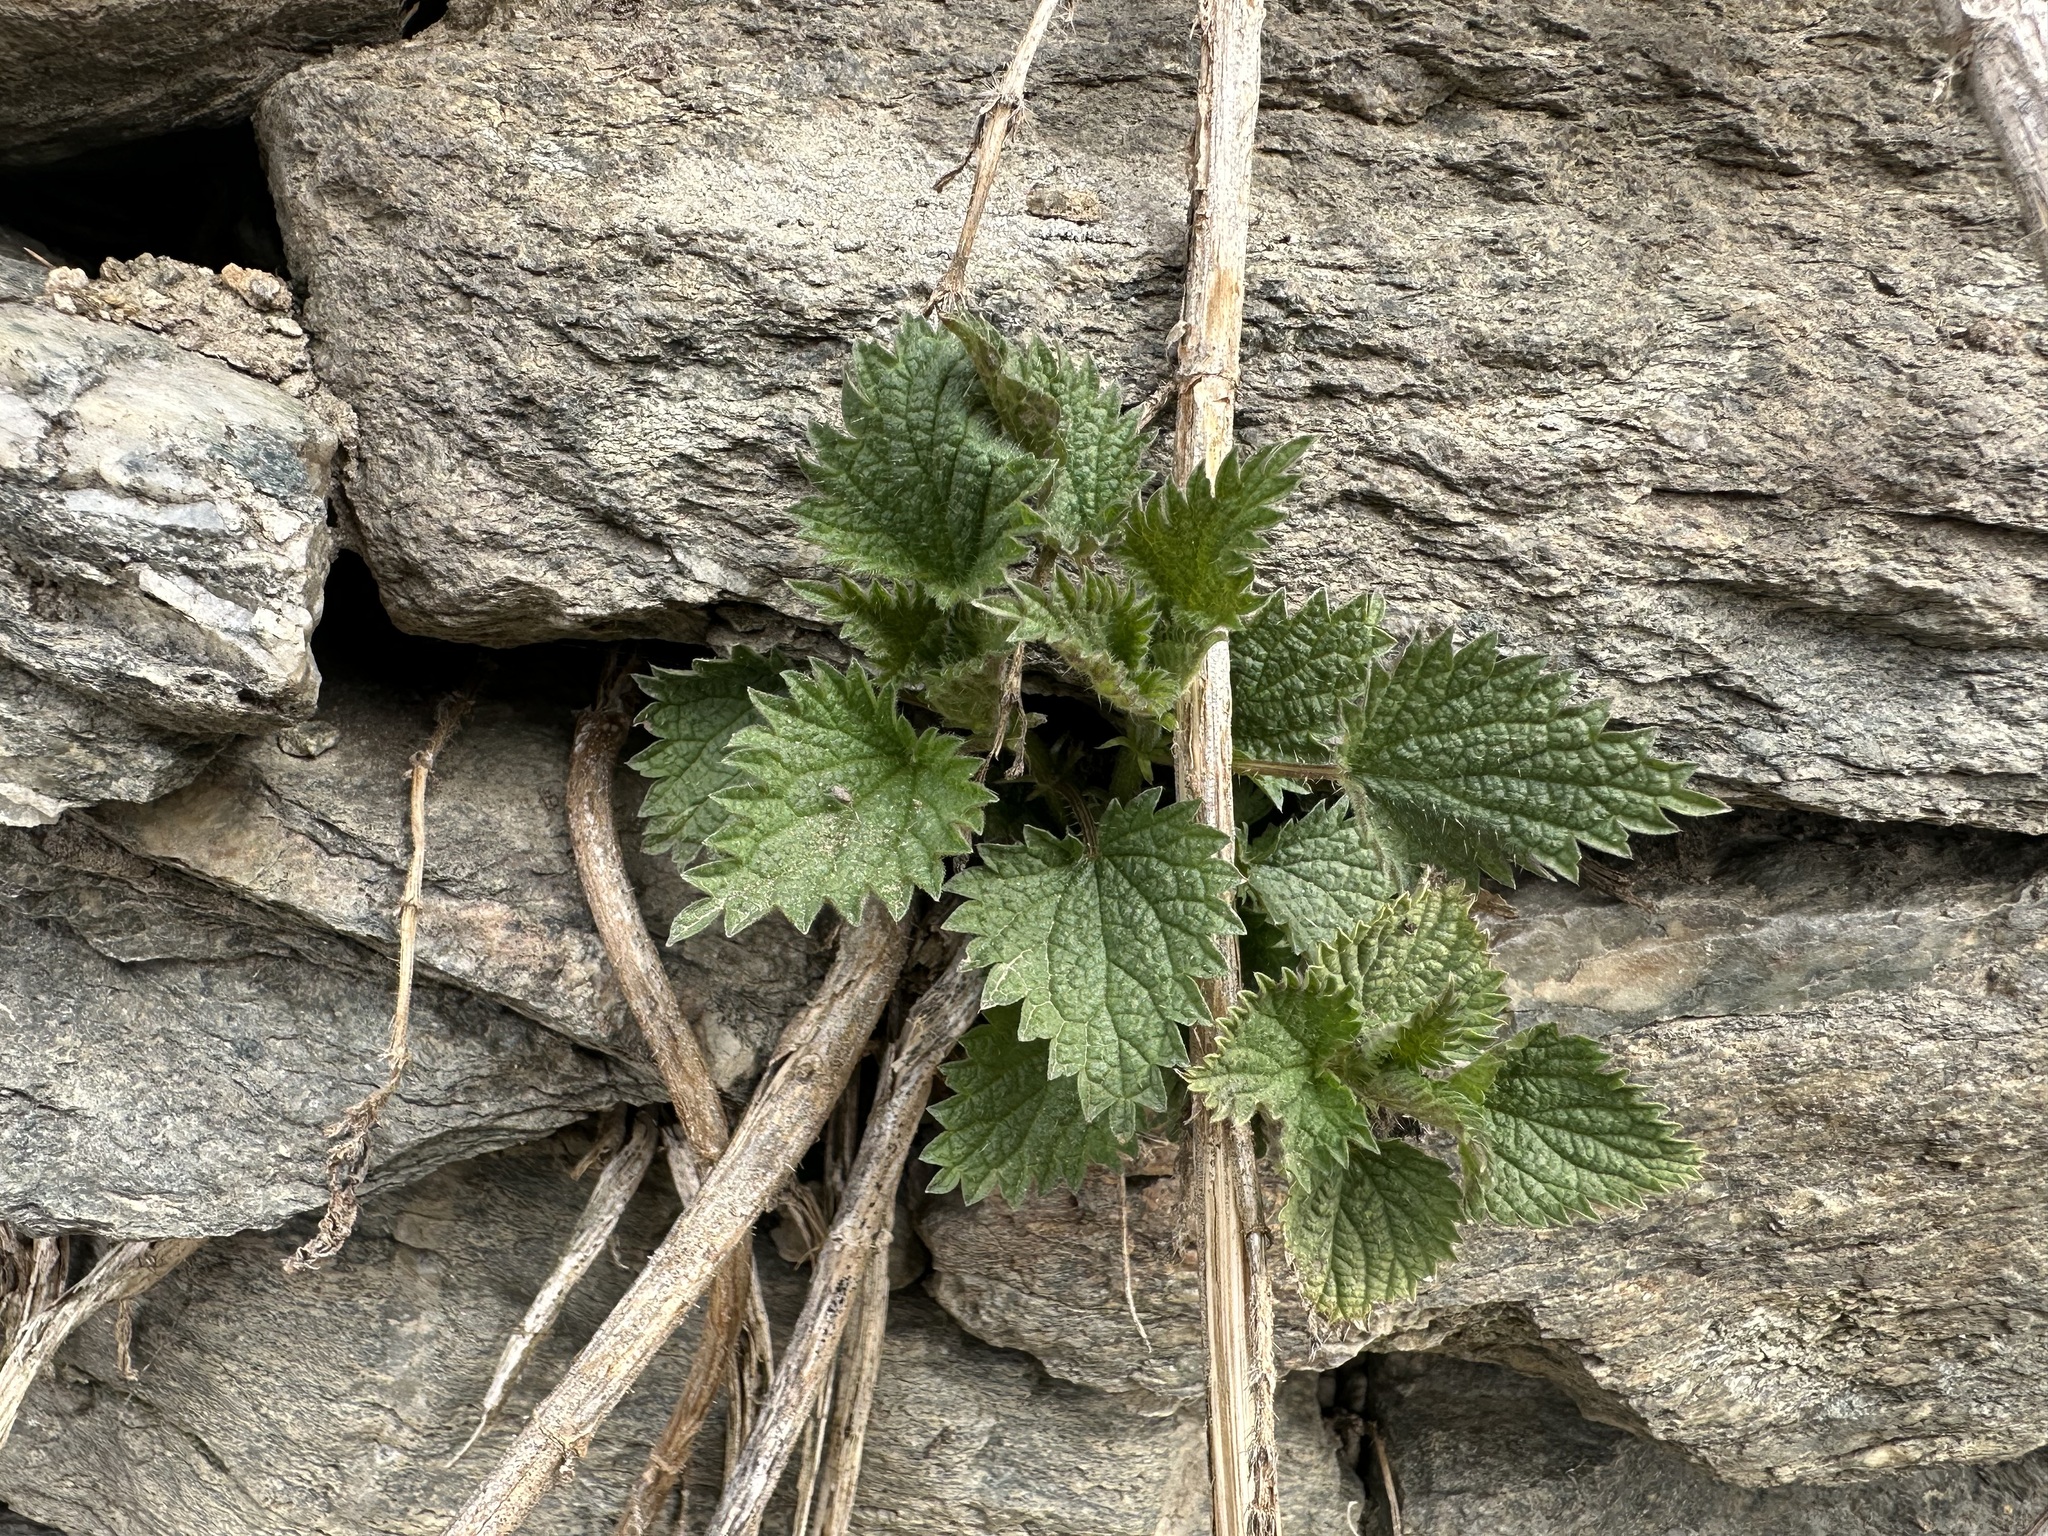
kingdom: Plantae
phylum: Tracheophyta
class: Magnoliopsida
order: Rosales
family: Urticaceae
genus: Urtica
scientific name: Urtica dioica
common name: Common nettle
